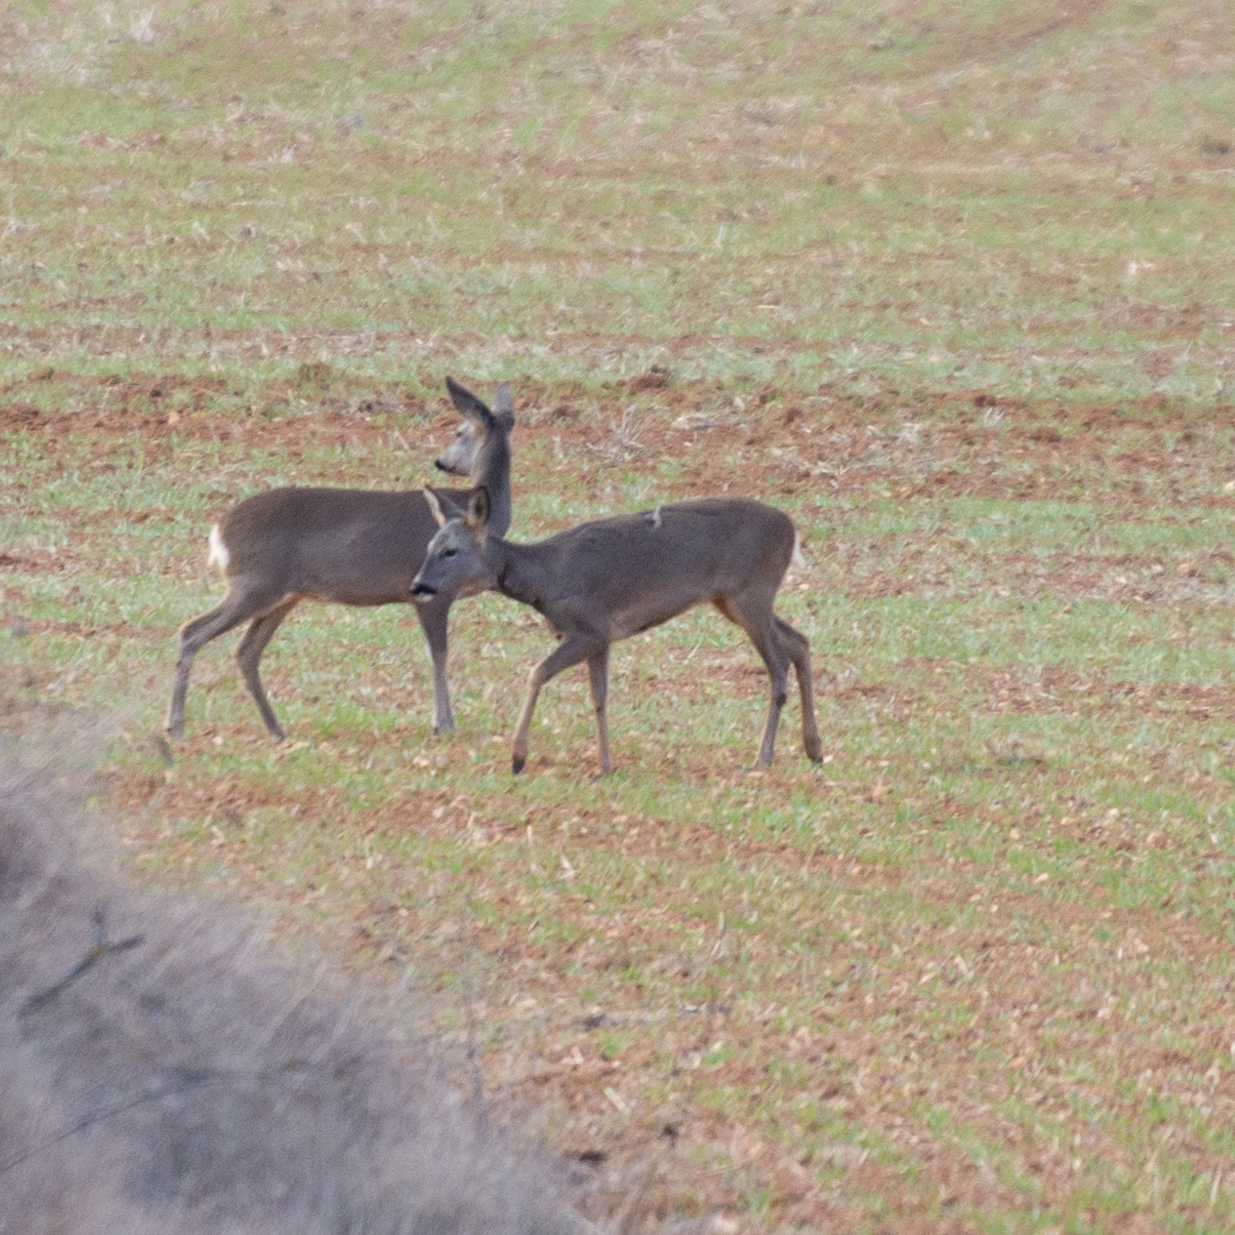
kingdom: Animalia
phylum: Chordata
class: Mammalia
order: Artiodactyla
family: Cervidae
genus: Capreolus
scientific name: Capreolus capreolus
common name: Western roe deer
